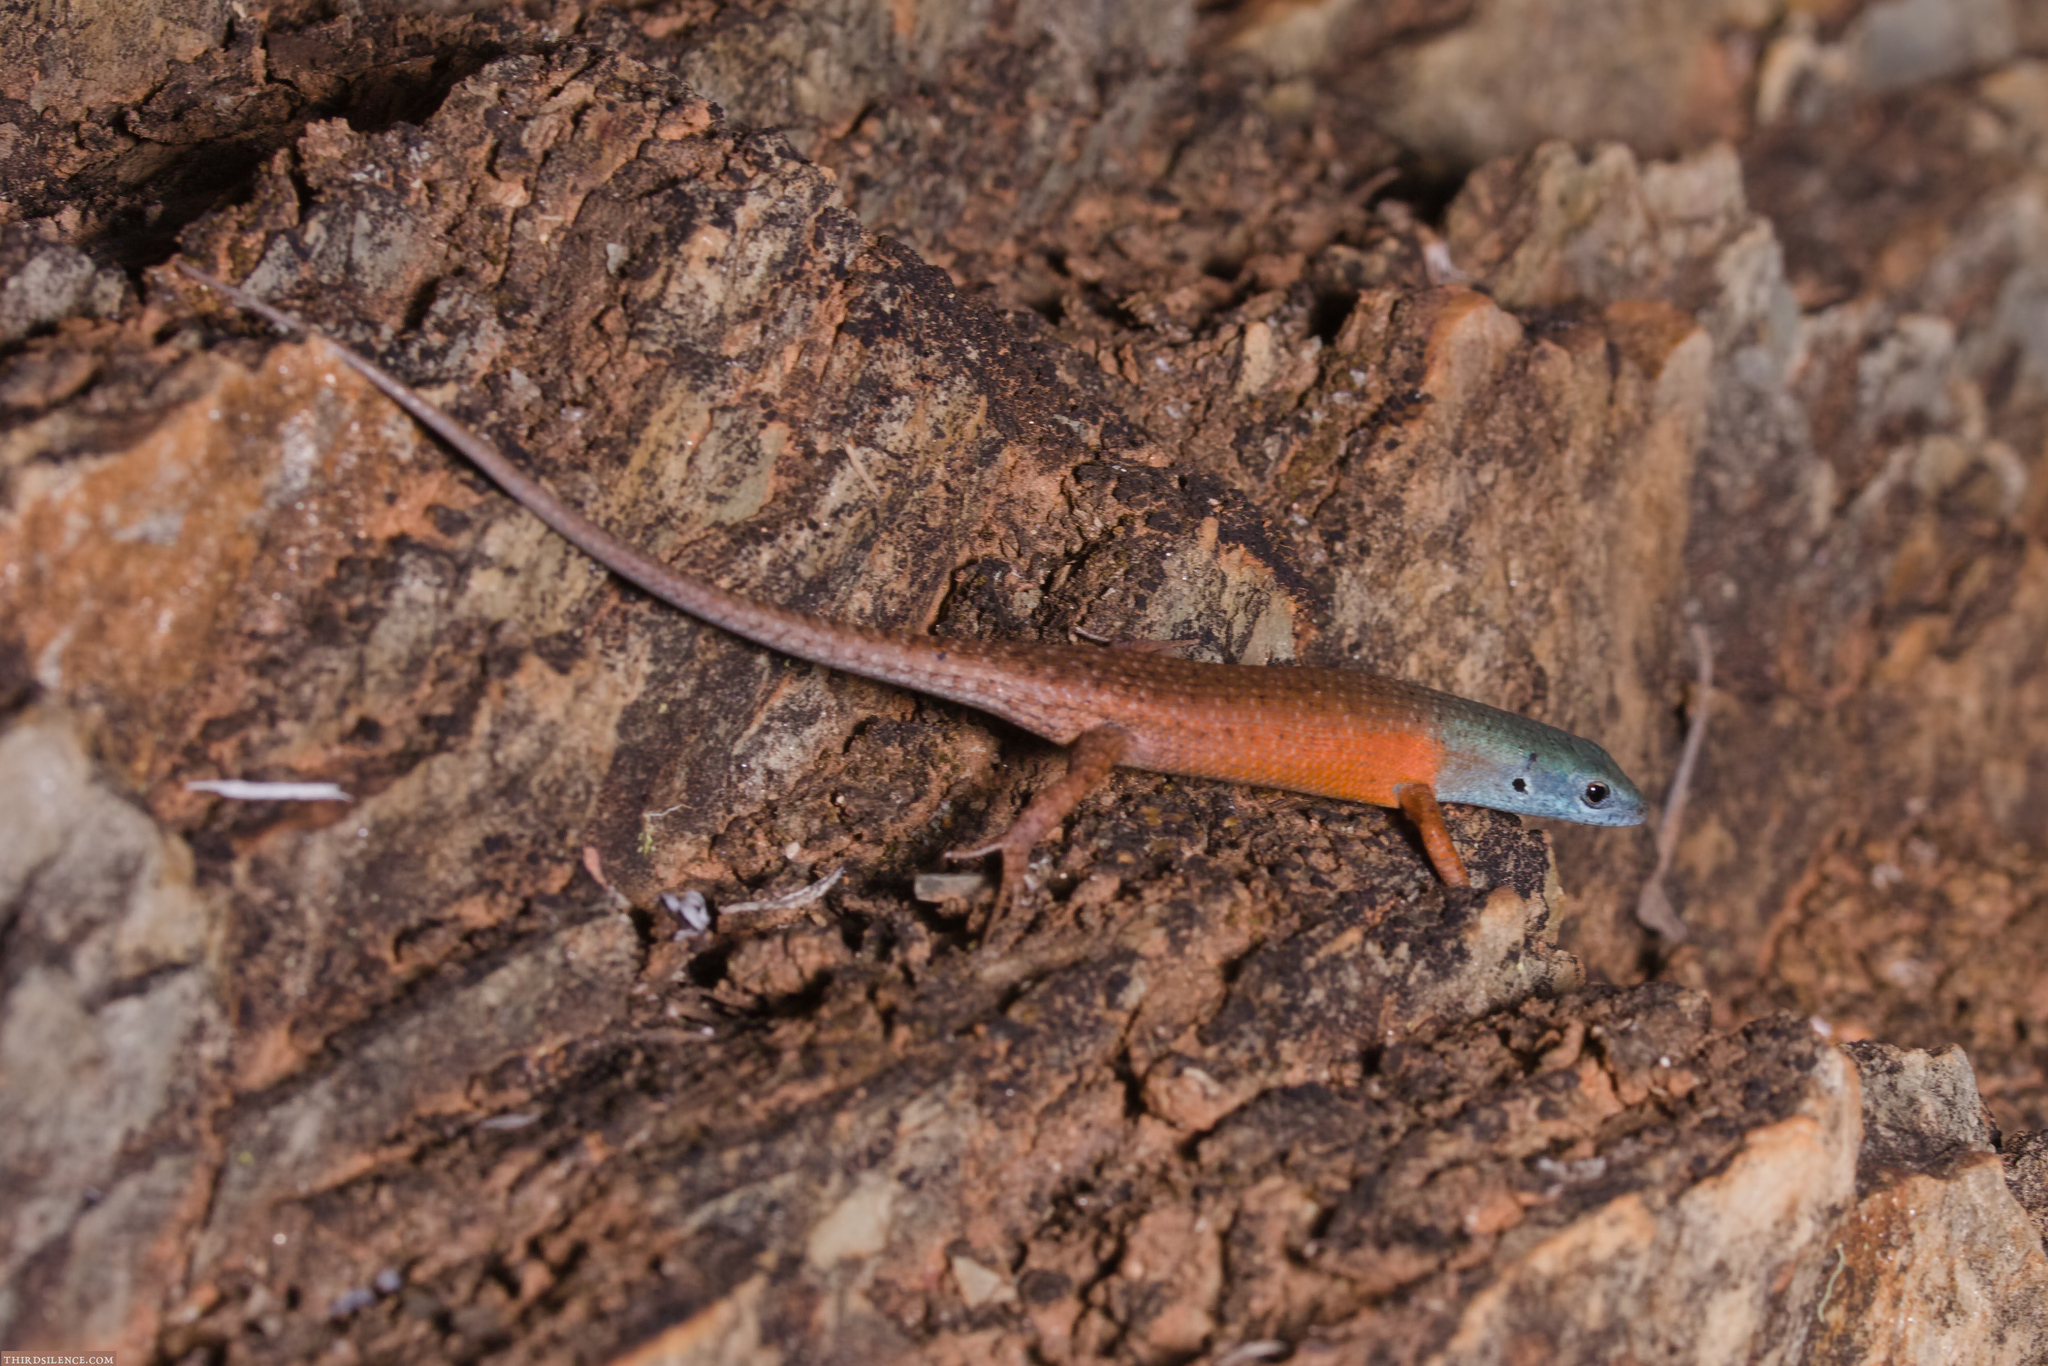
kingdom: Animalia
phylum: Chordata
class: Squamata
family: Scincidae
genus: Carlia
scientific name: Carlia triacantha
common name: Desert rainbow-skink
